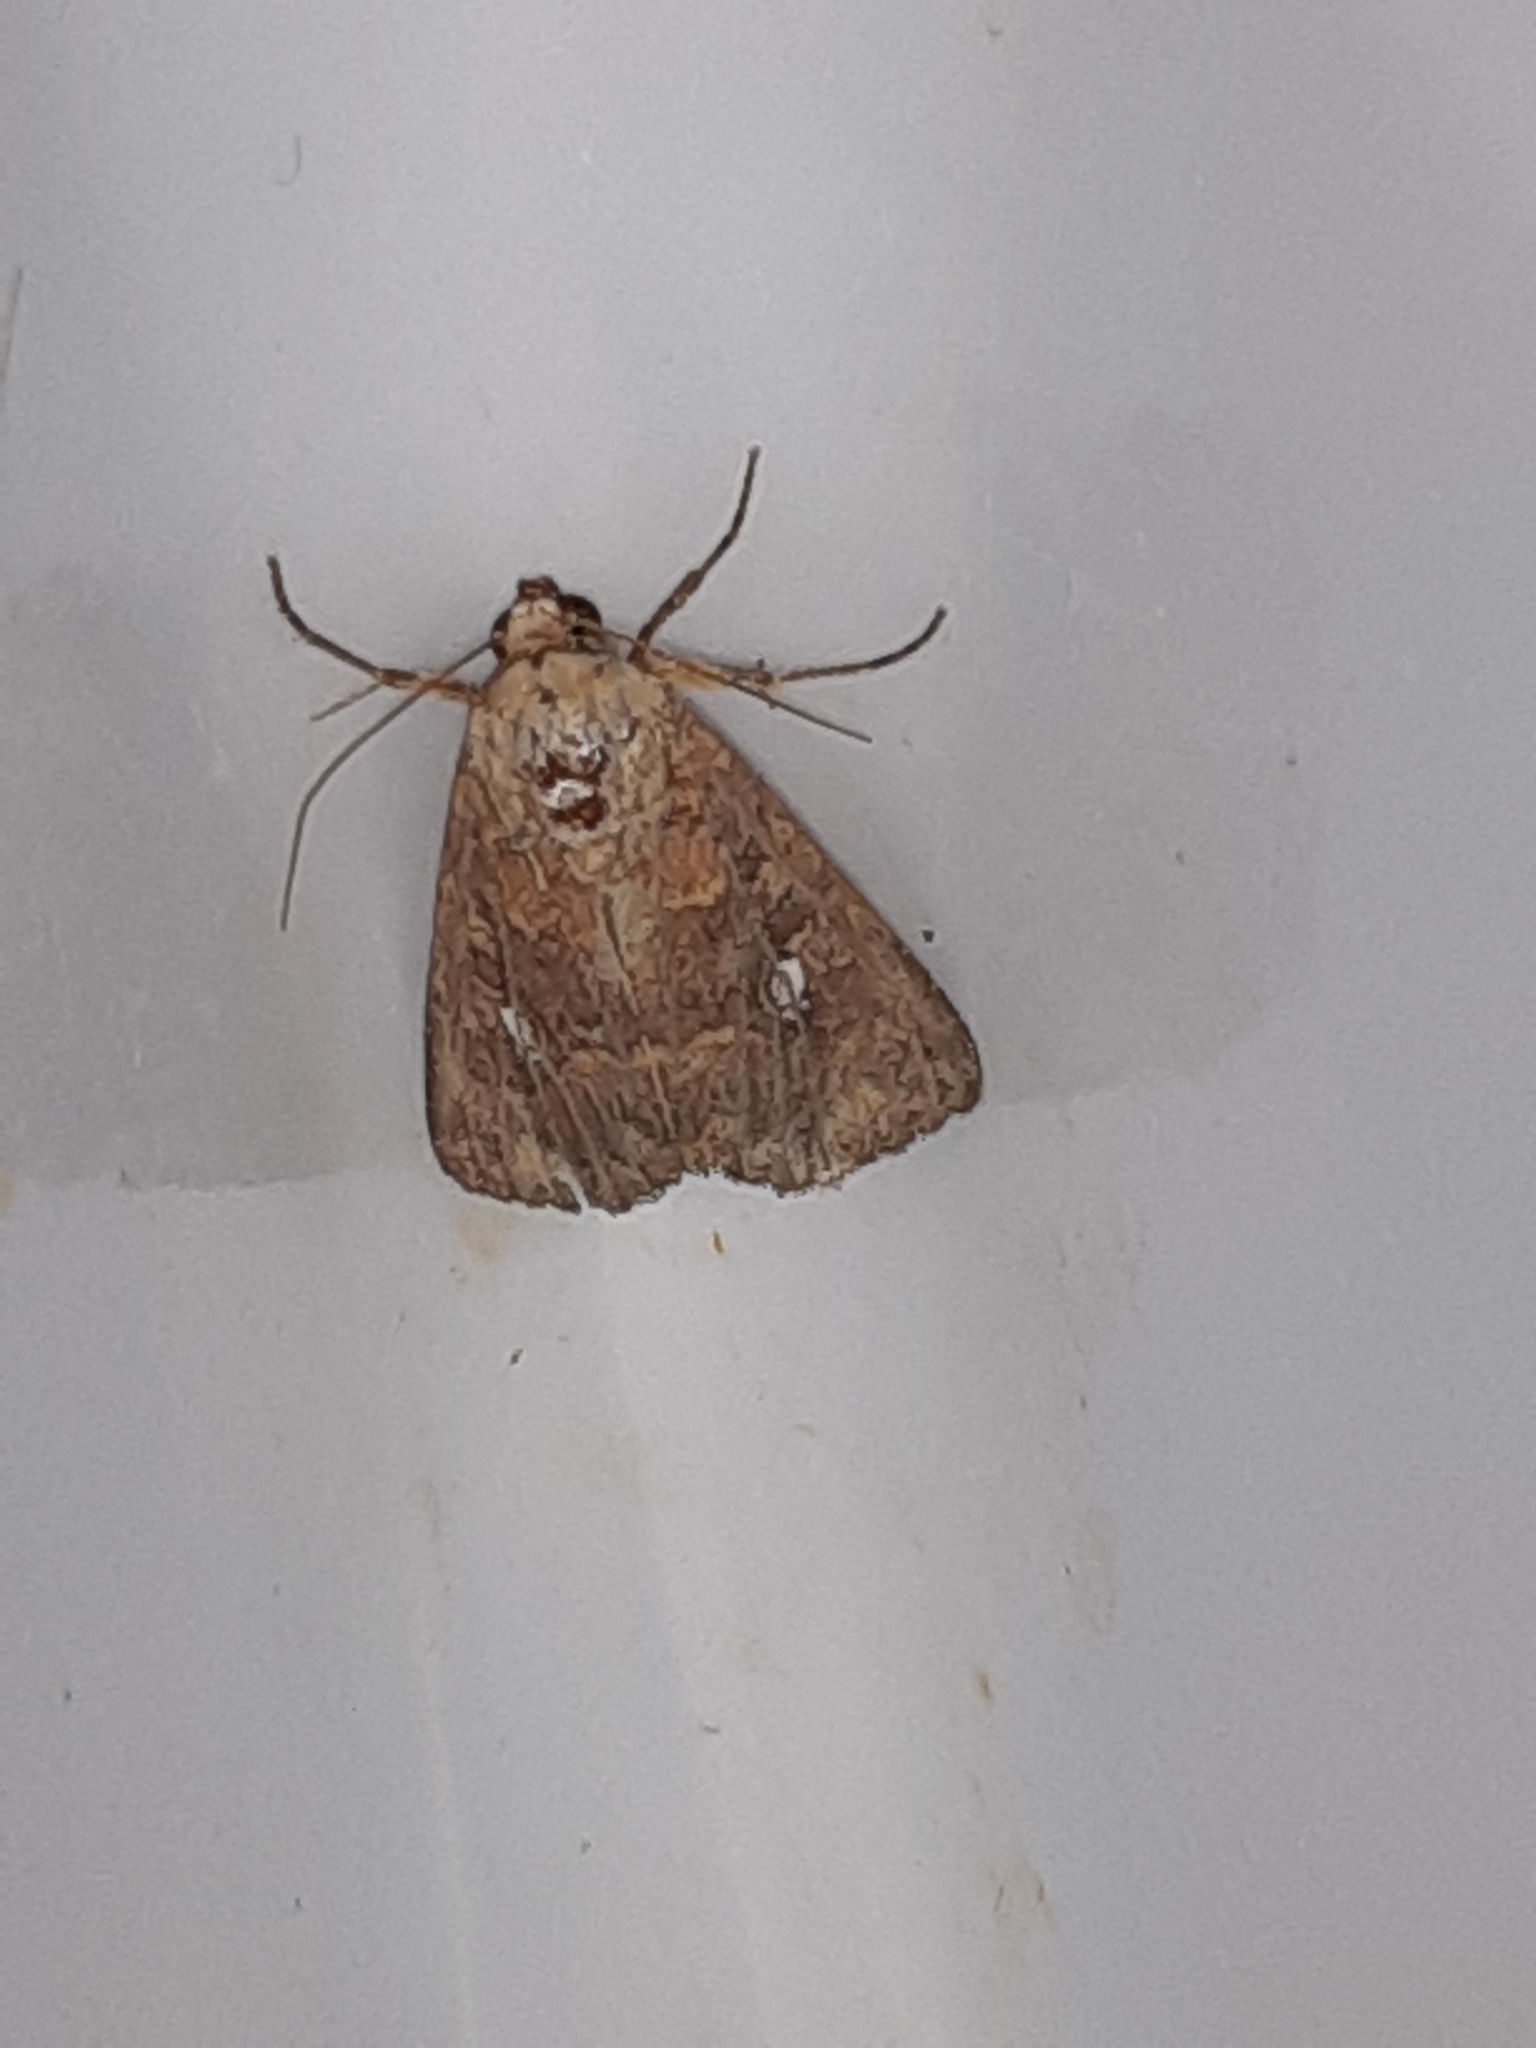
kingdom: Animalia
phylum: Arthropoda
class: Insecta
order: Lepidoptera
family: Noctuidae
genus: Condica
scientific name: Condica mobilis
